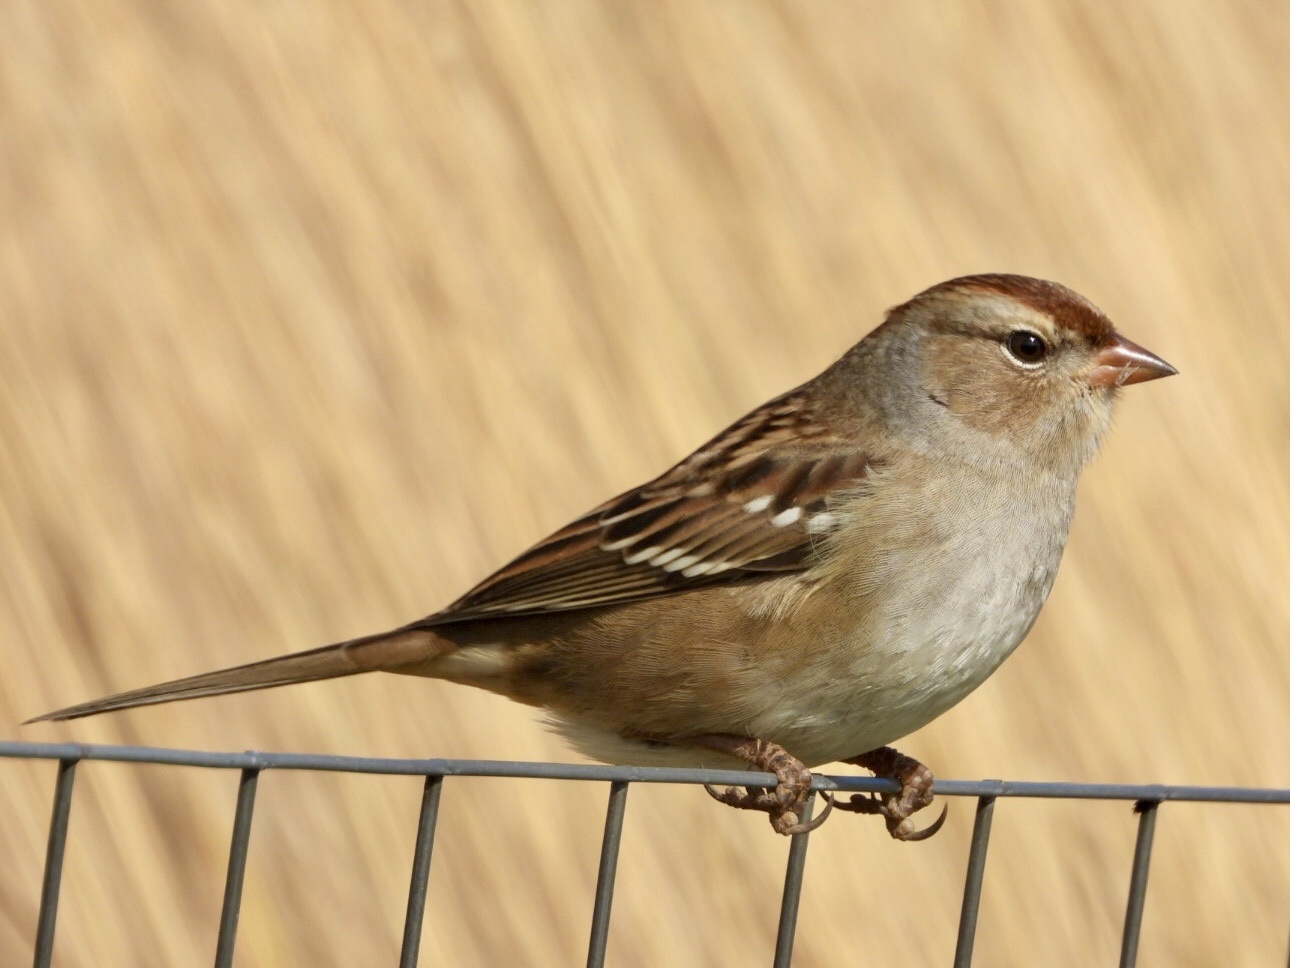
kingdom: Animalia
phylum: Chordata
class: Aves
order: Passeriformes
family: Passerellidae
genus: Zonotrichia
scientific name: Zonotrichia leucophrys
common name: White-crowned sparrow
